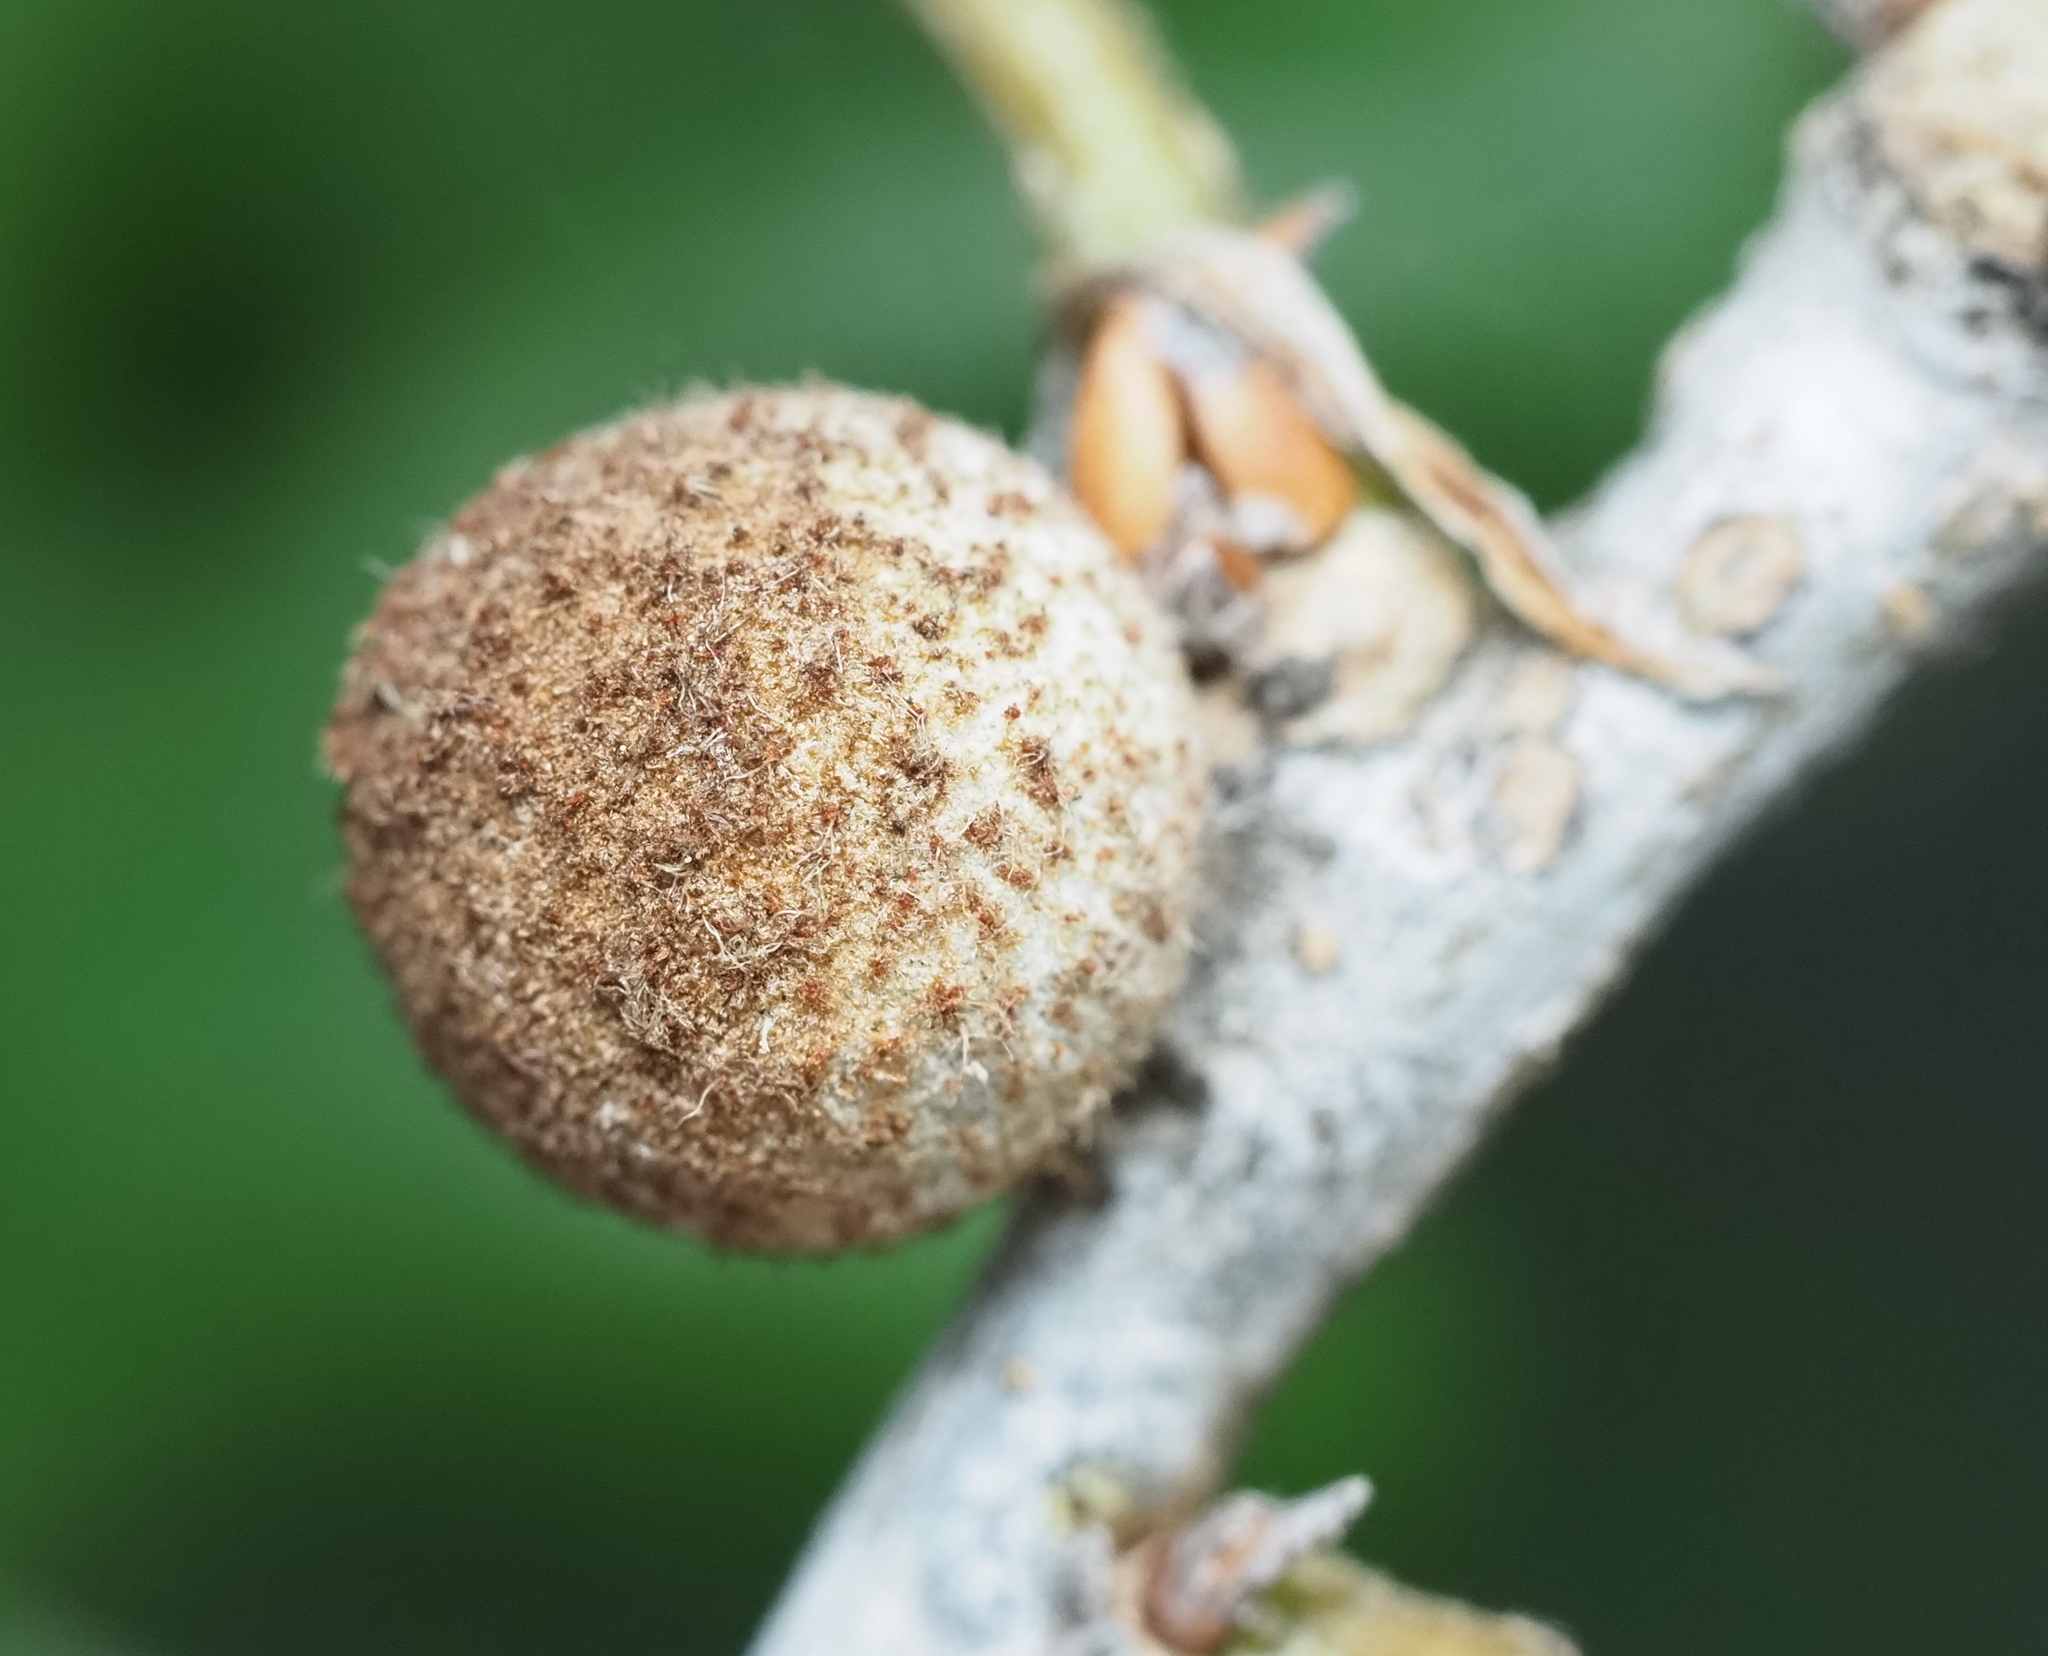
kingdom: Animalia
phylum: Arthropoda
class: Insecta
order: Hymenoptera
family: Cynipidae
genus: Burnettweldia
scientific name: Burnettweldia
